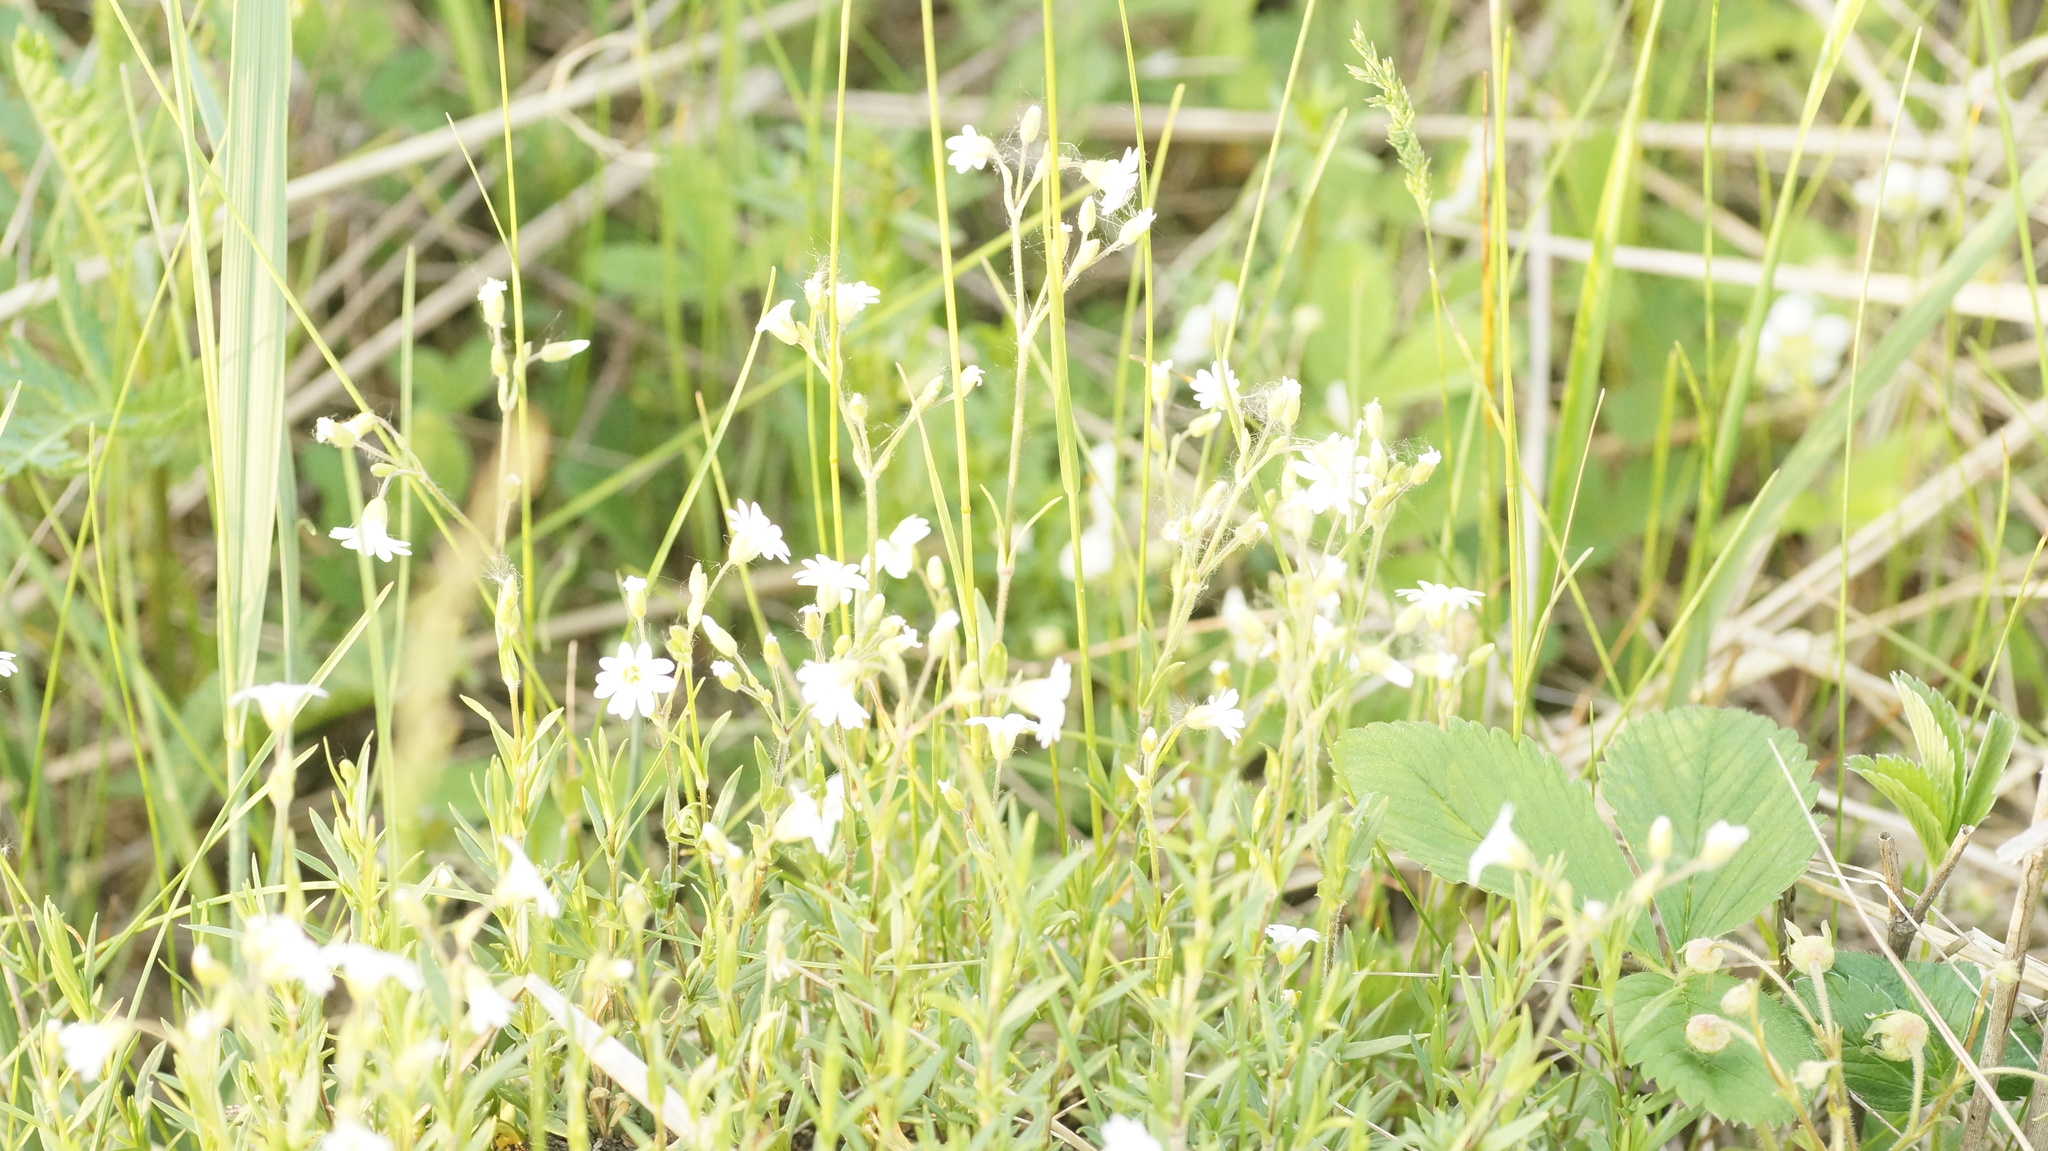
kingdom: Plantae
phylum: Tracheophyta
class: Magnoliopsida
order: Caryophyllales
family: Caryophyllaceae
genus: Cerastium
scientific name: Cerastium arvense
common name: Field mouse-ear
